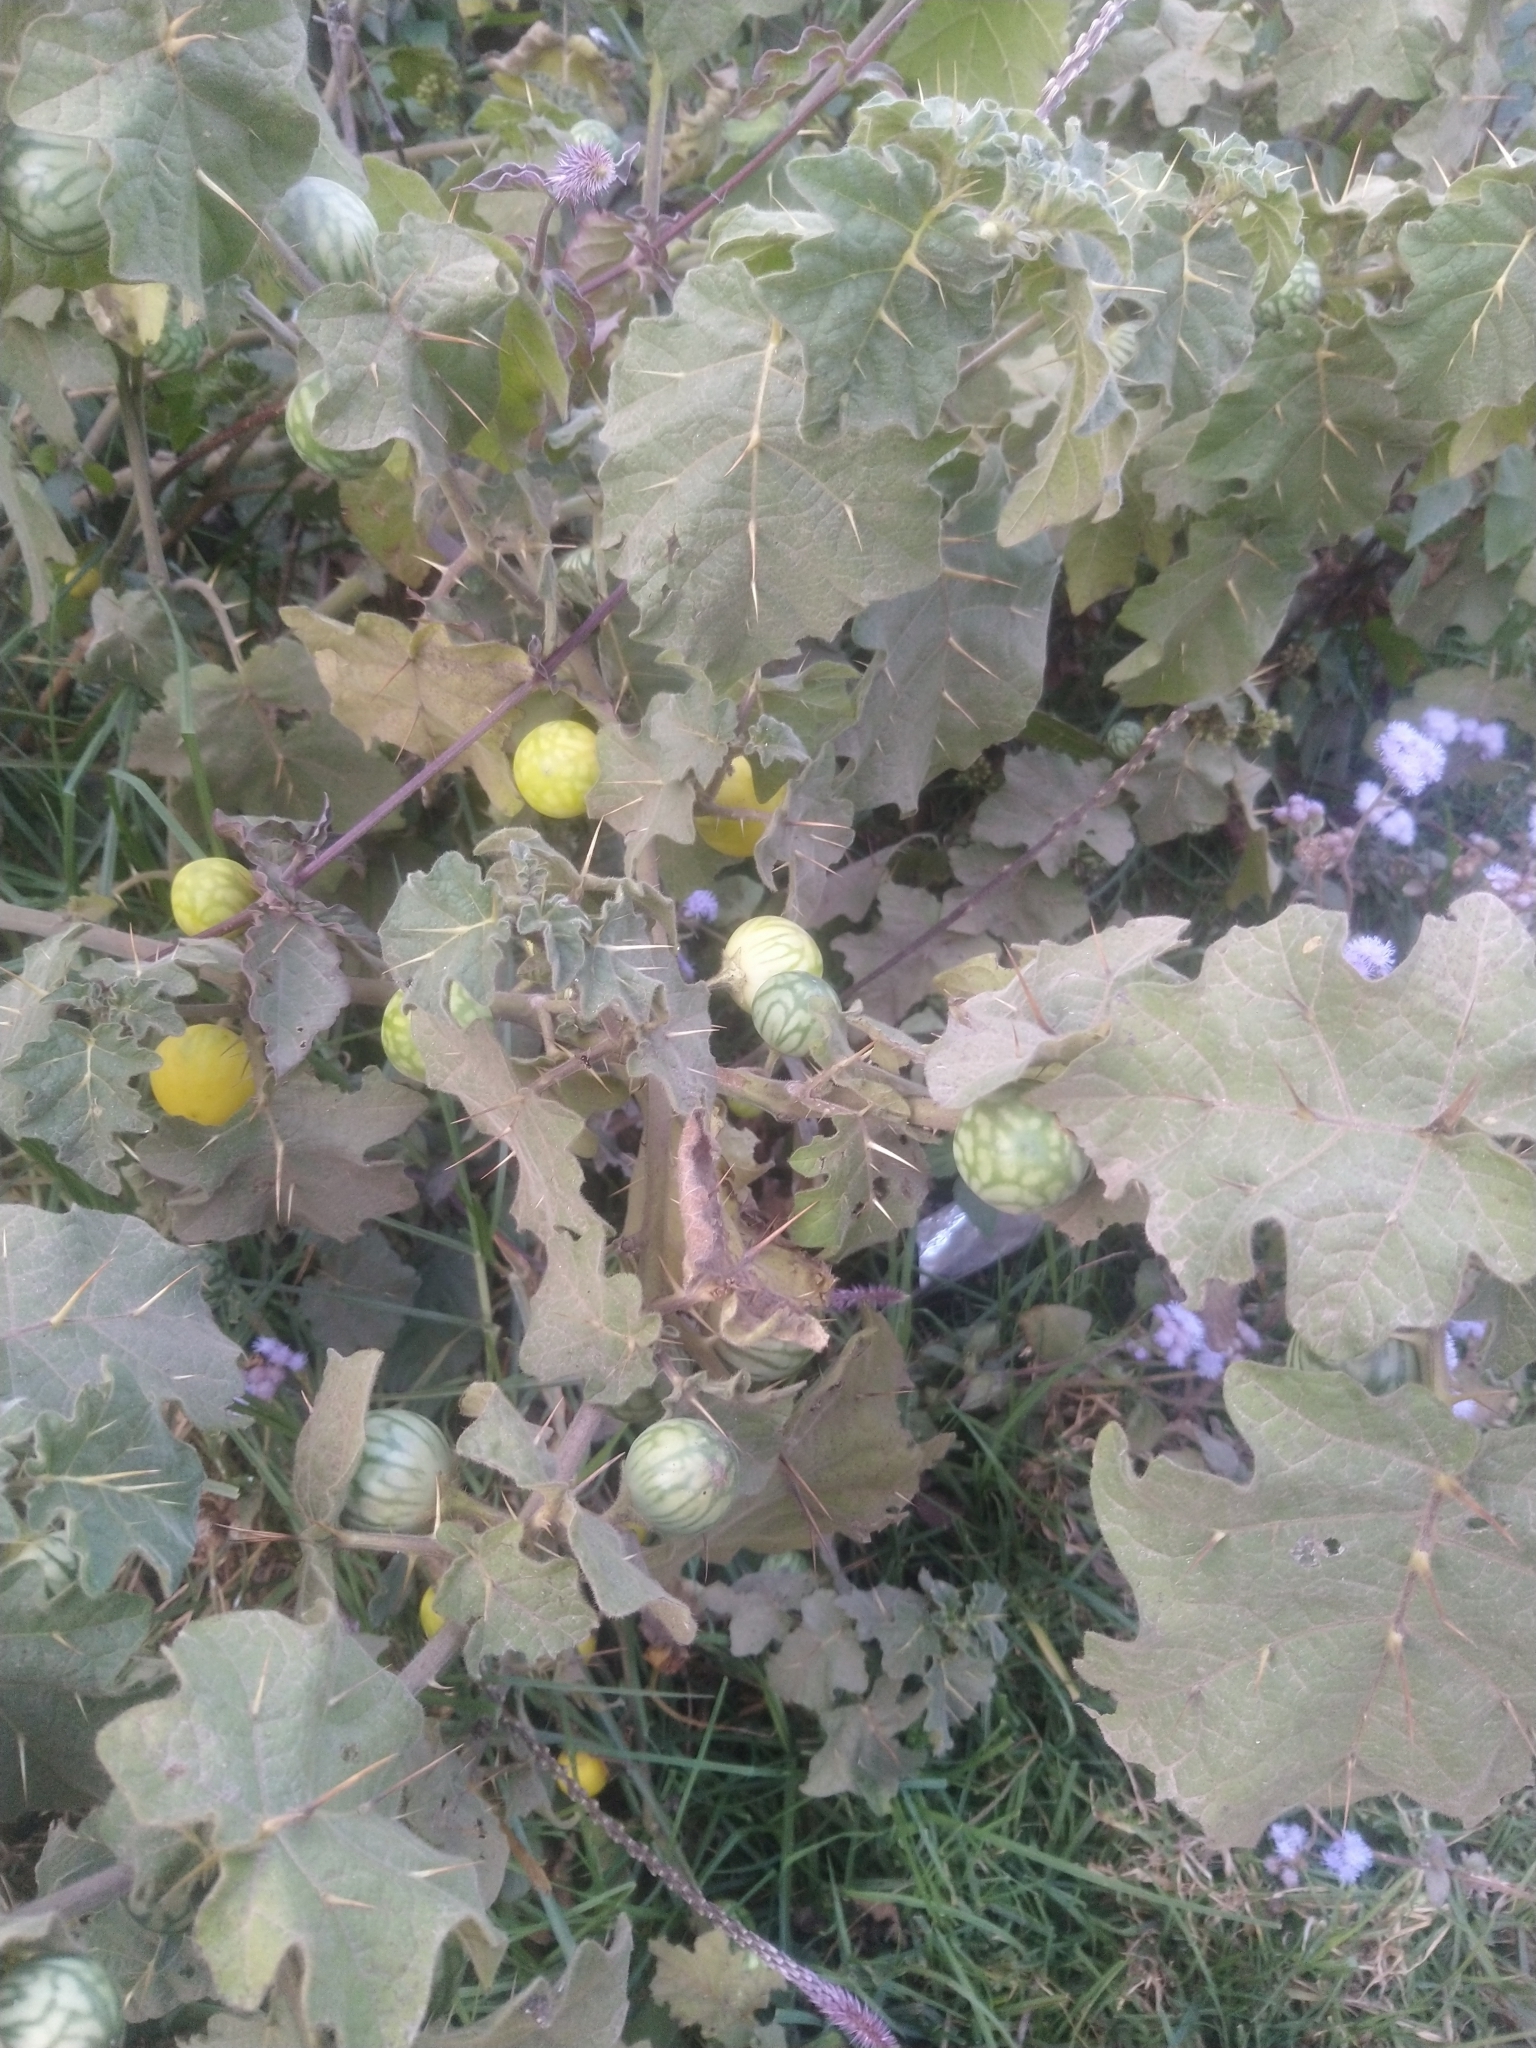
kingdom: Plantae
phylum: Tracheophyta
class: Magnoliopsida
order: Solanales
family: Solanaceae
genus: Solanum
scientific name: Solanum viarum
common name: Tropical soda apple
